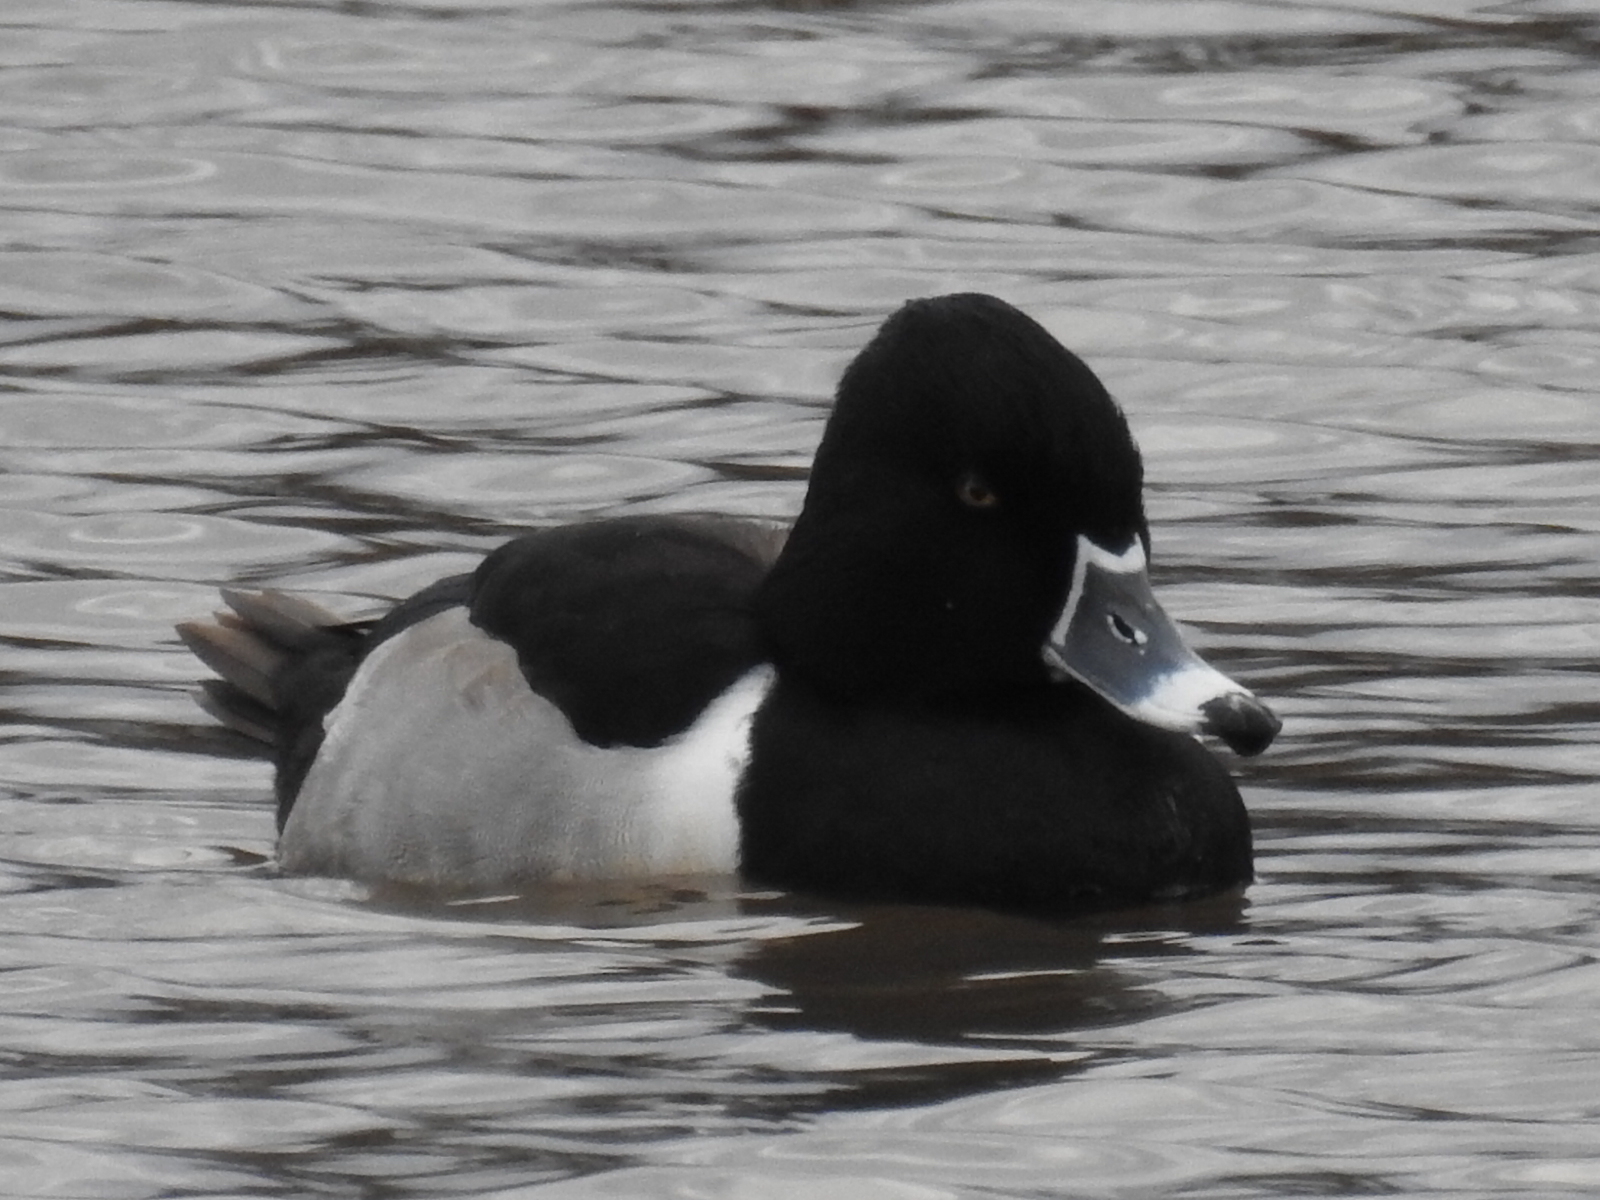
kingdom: Animalia
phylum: Chordata
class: Aves
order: Anseriformes
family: Anatidae
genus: Aythya
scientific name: Aythya collaris
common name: Ring-necked duck
